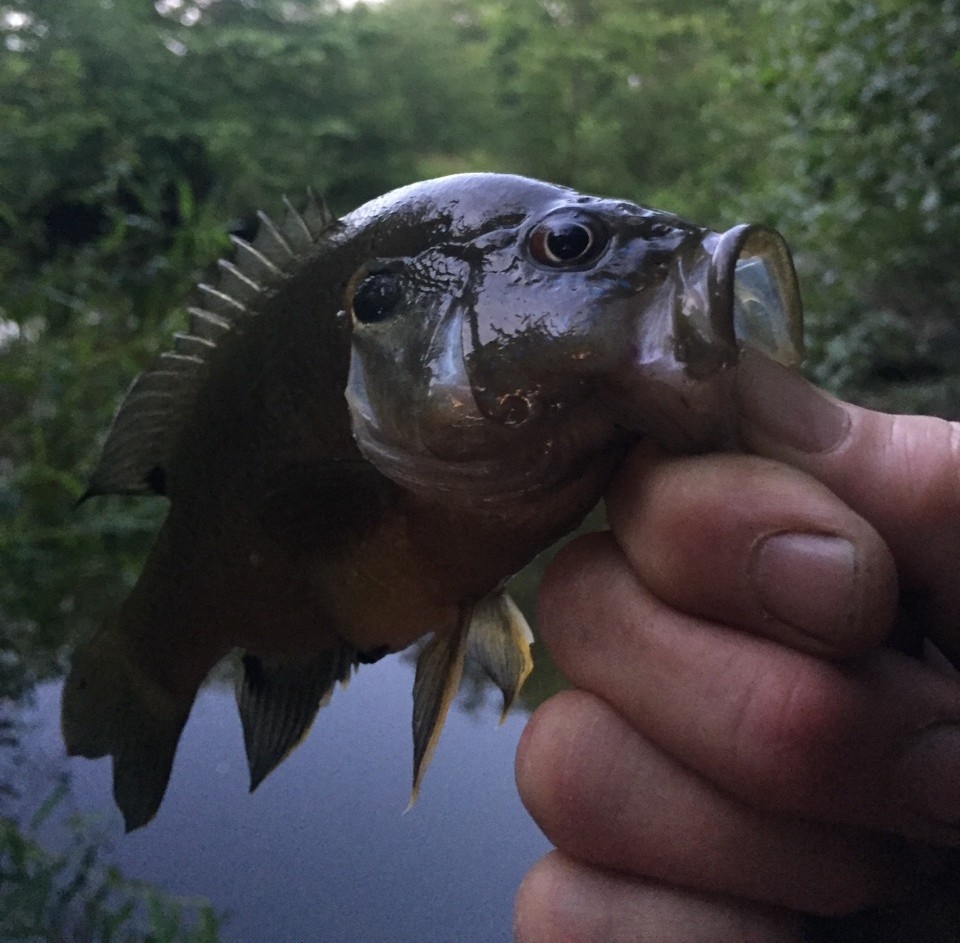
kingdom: Animalia
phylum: Chordata
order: Perciformes
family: Centrarchidae
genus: Lepomis
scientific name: Lepomis cyanellus
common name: Green sunfish
